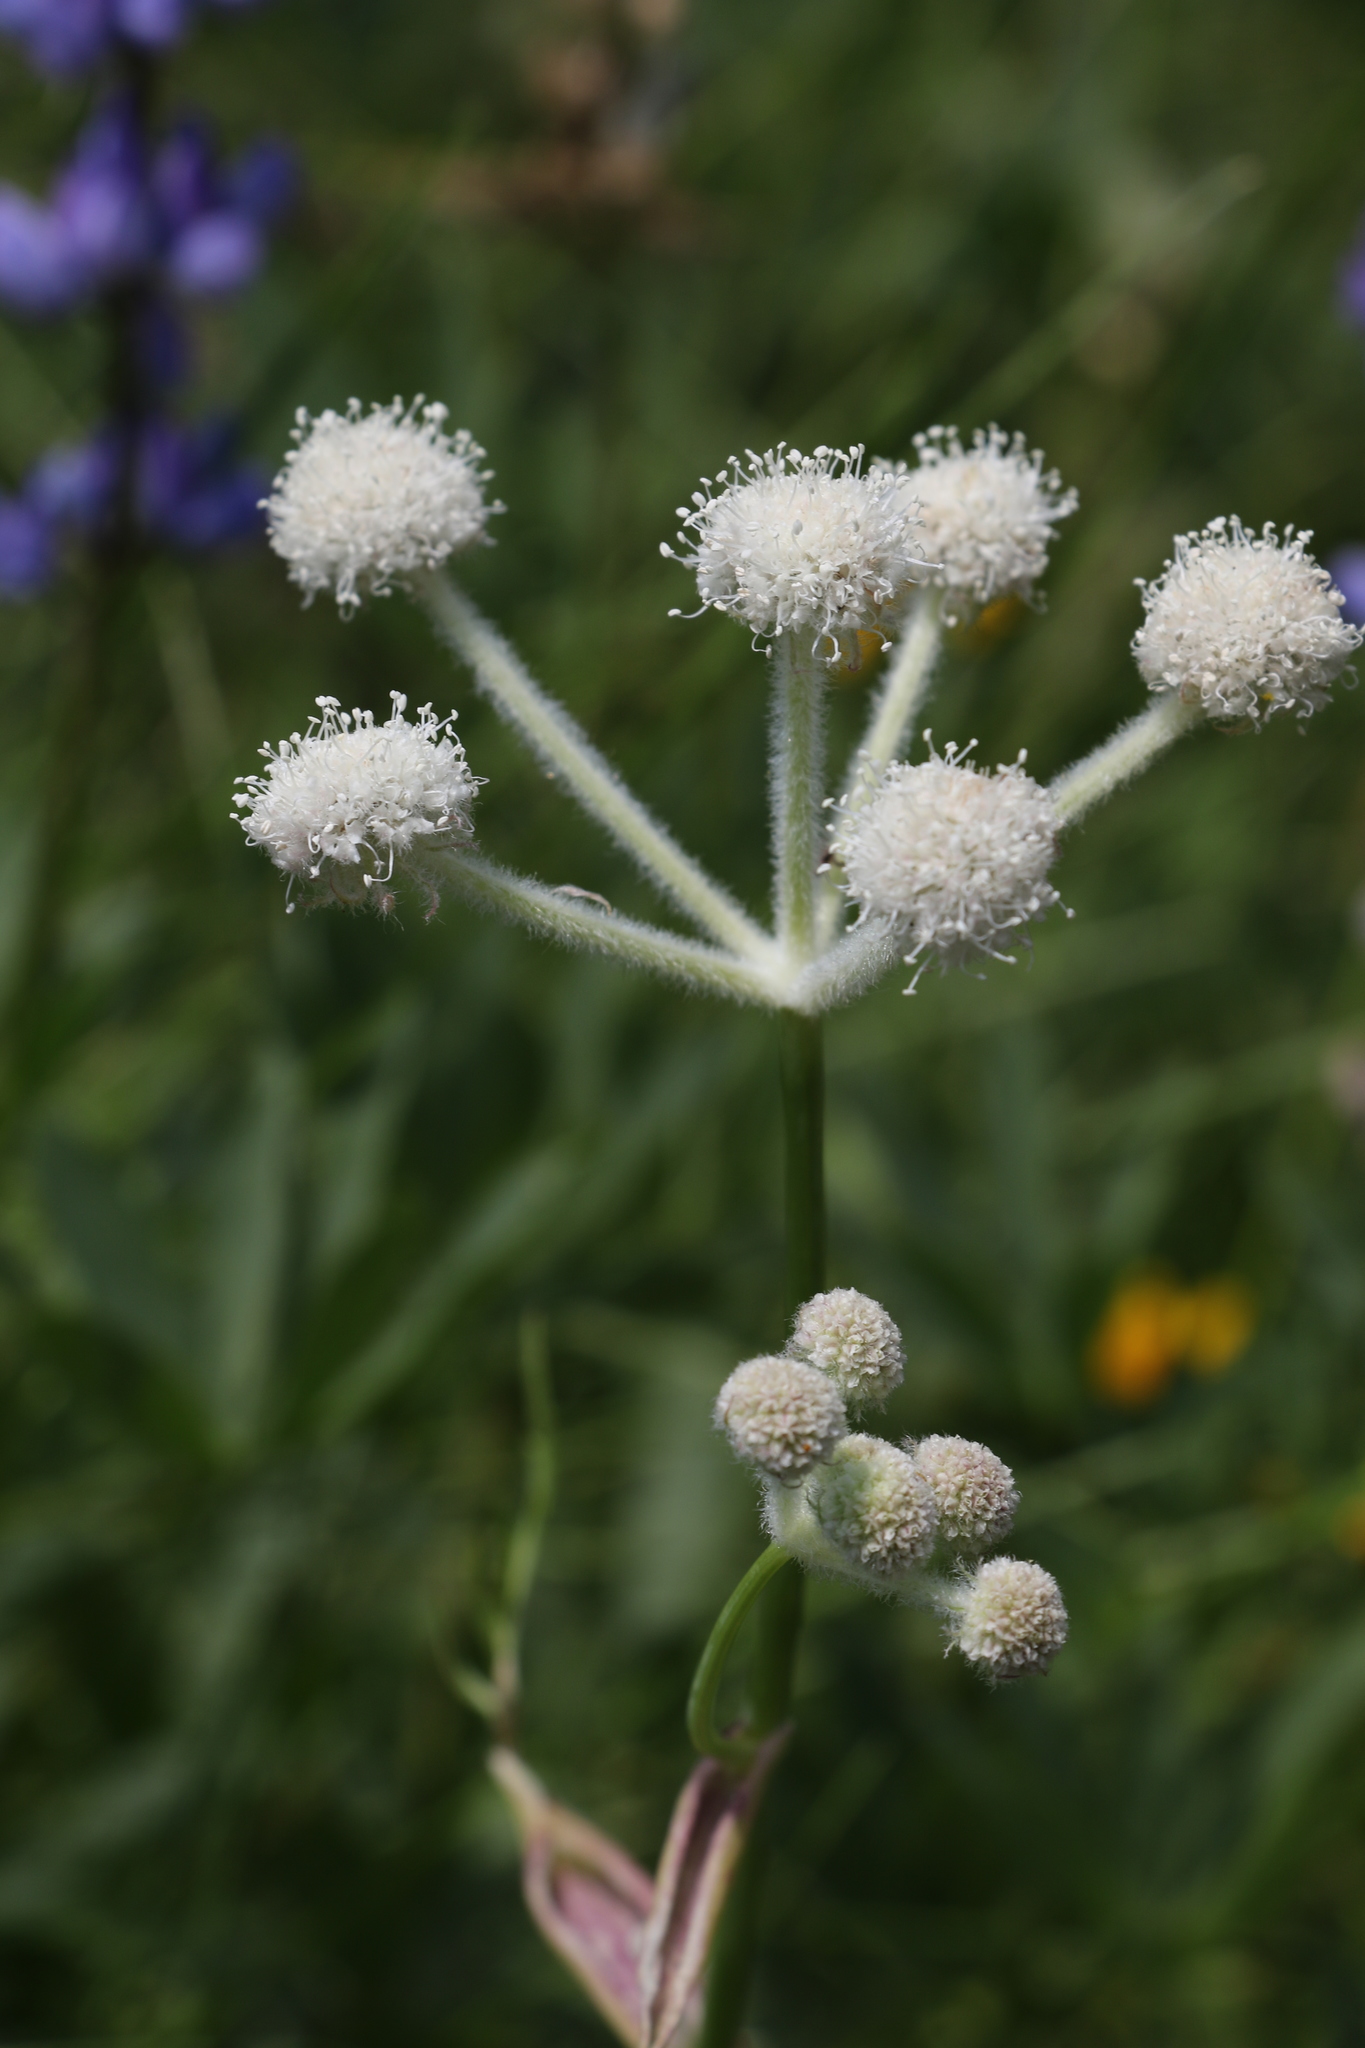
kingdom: Plantae
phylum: Tracheophyta
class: Magnoliopsida
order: Apiales
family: Apiaceae
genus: Angelica
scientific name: Angelica capitellata
